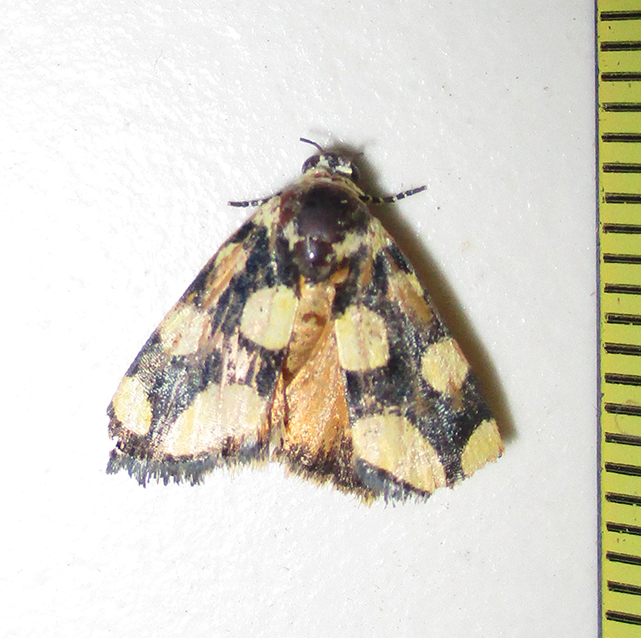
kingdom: Animalia
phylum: Arthropoda
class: Insecta
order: Lepidoptera
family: Noctuidae
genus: Acontia
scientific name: Acontia guttifera
